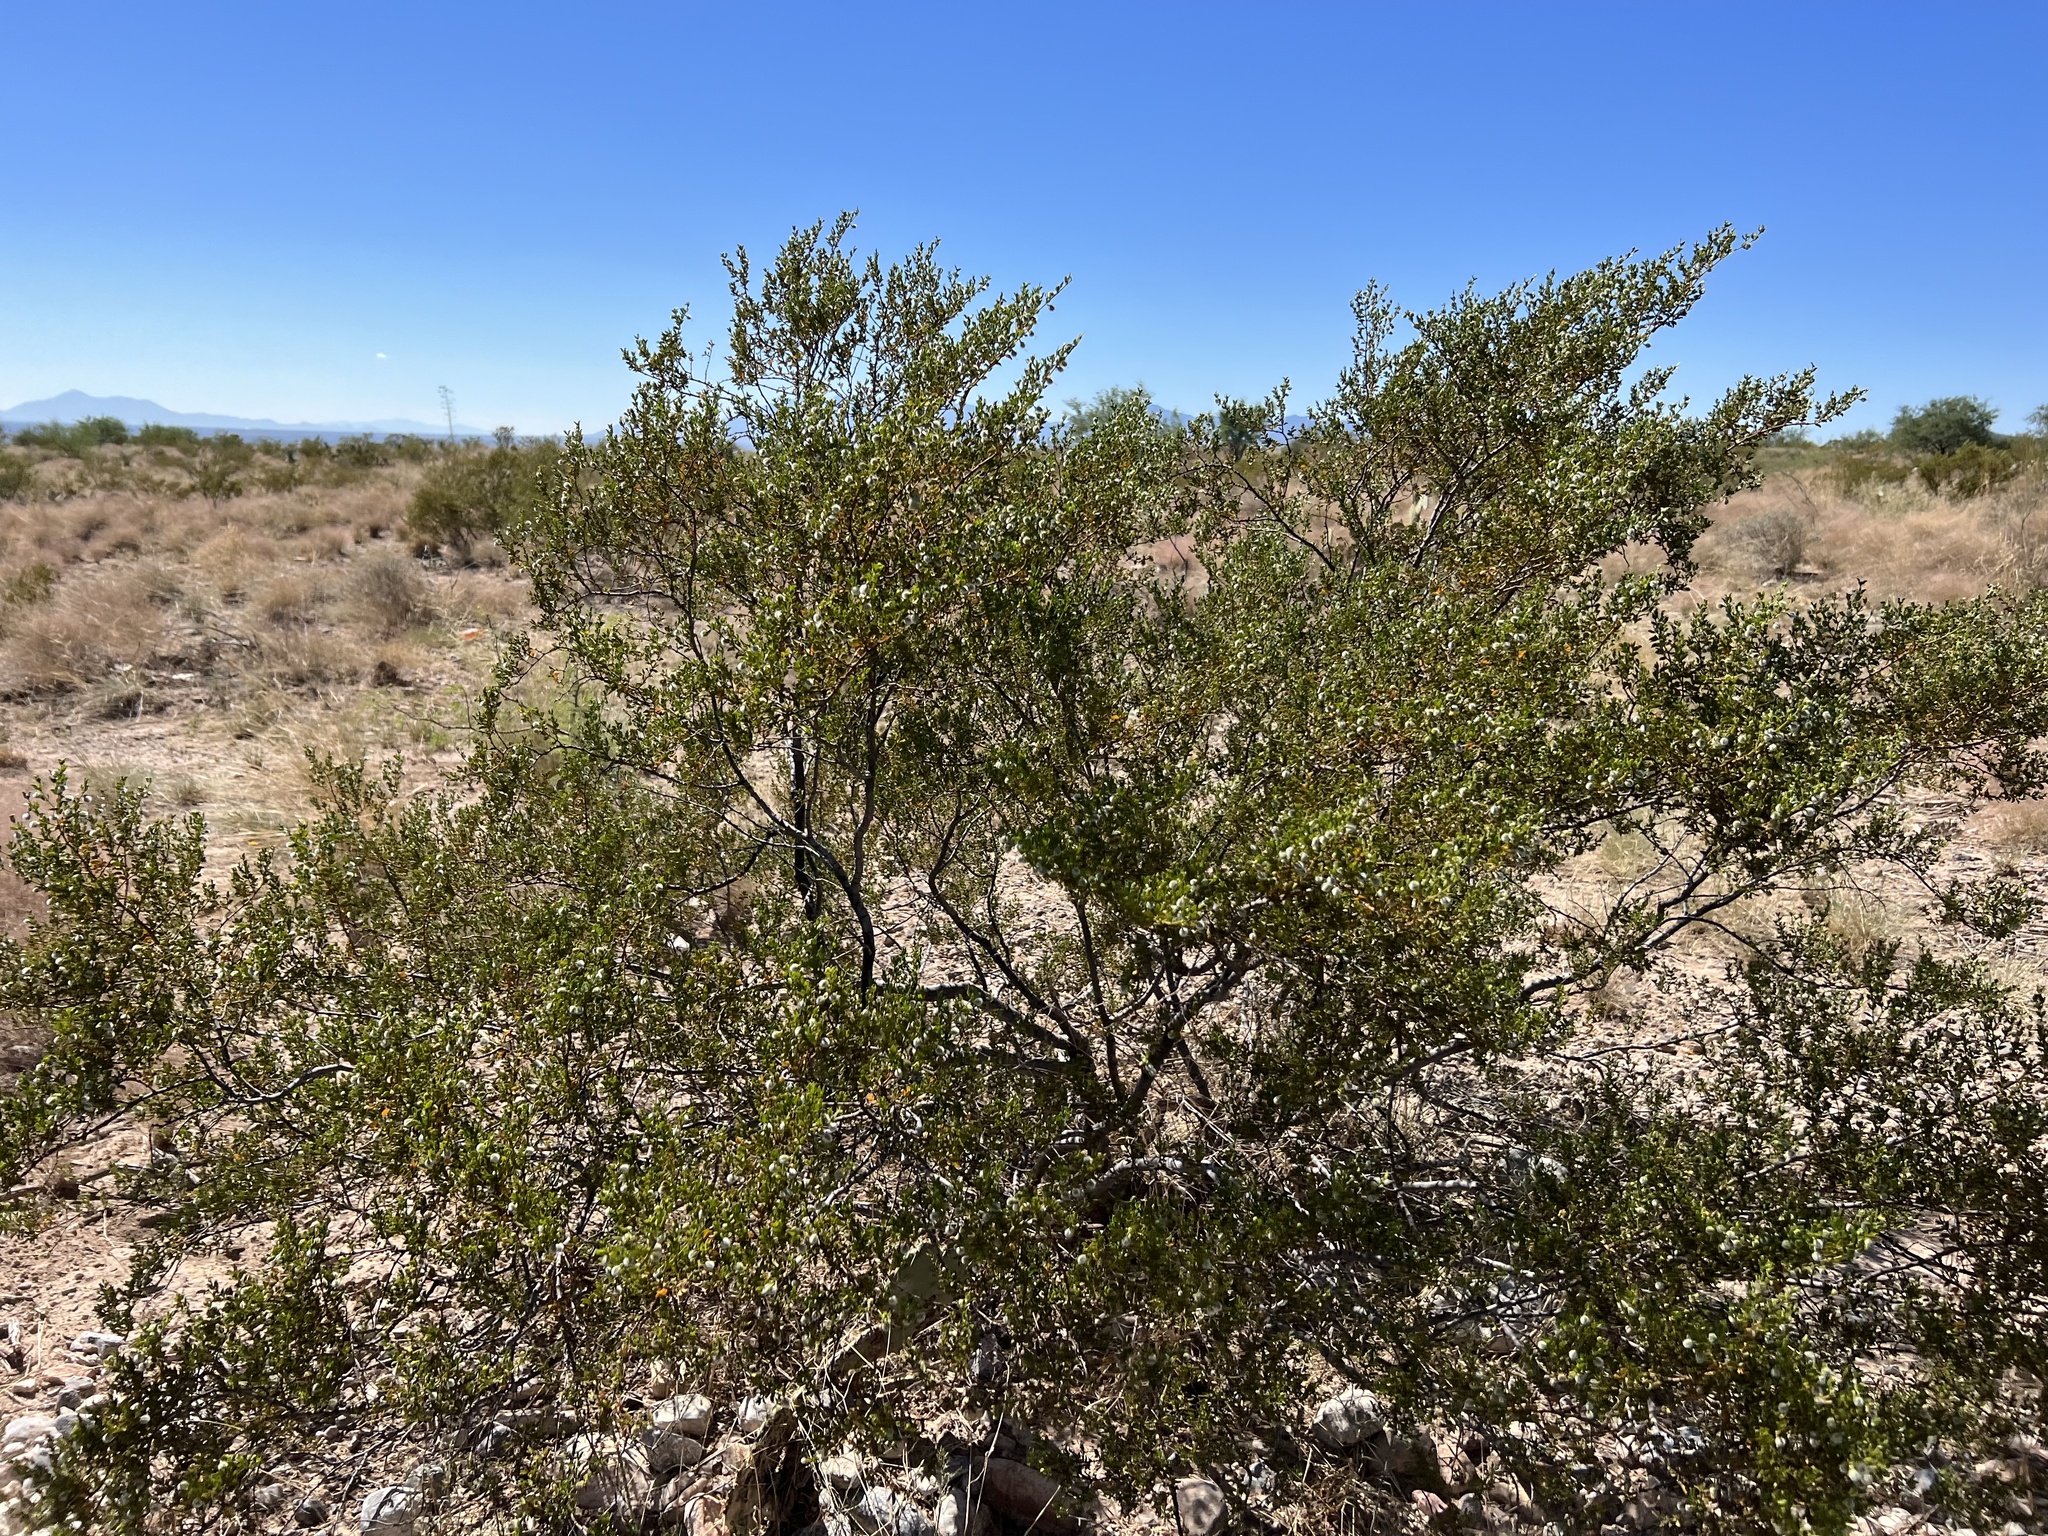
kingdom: Plantae
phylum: Tracheophyta
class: Magnoliopsida
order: Zygophyllales
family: Zygophyllaceae
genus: Larrea
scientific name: Larrea tridentata
